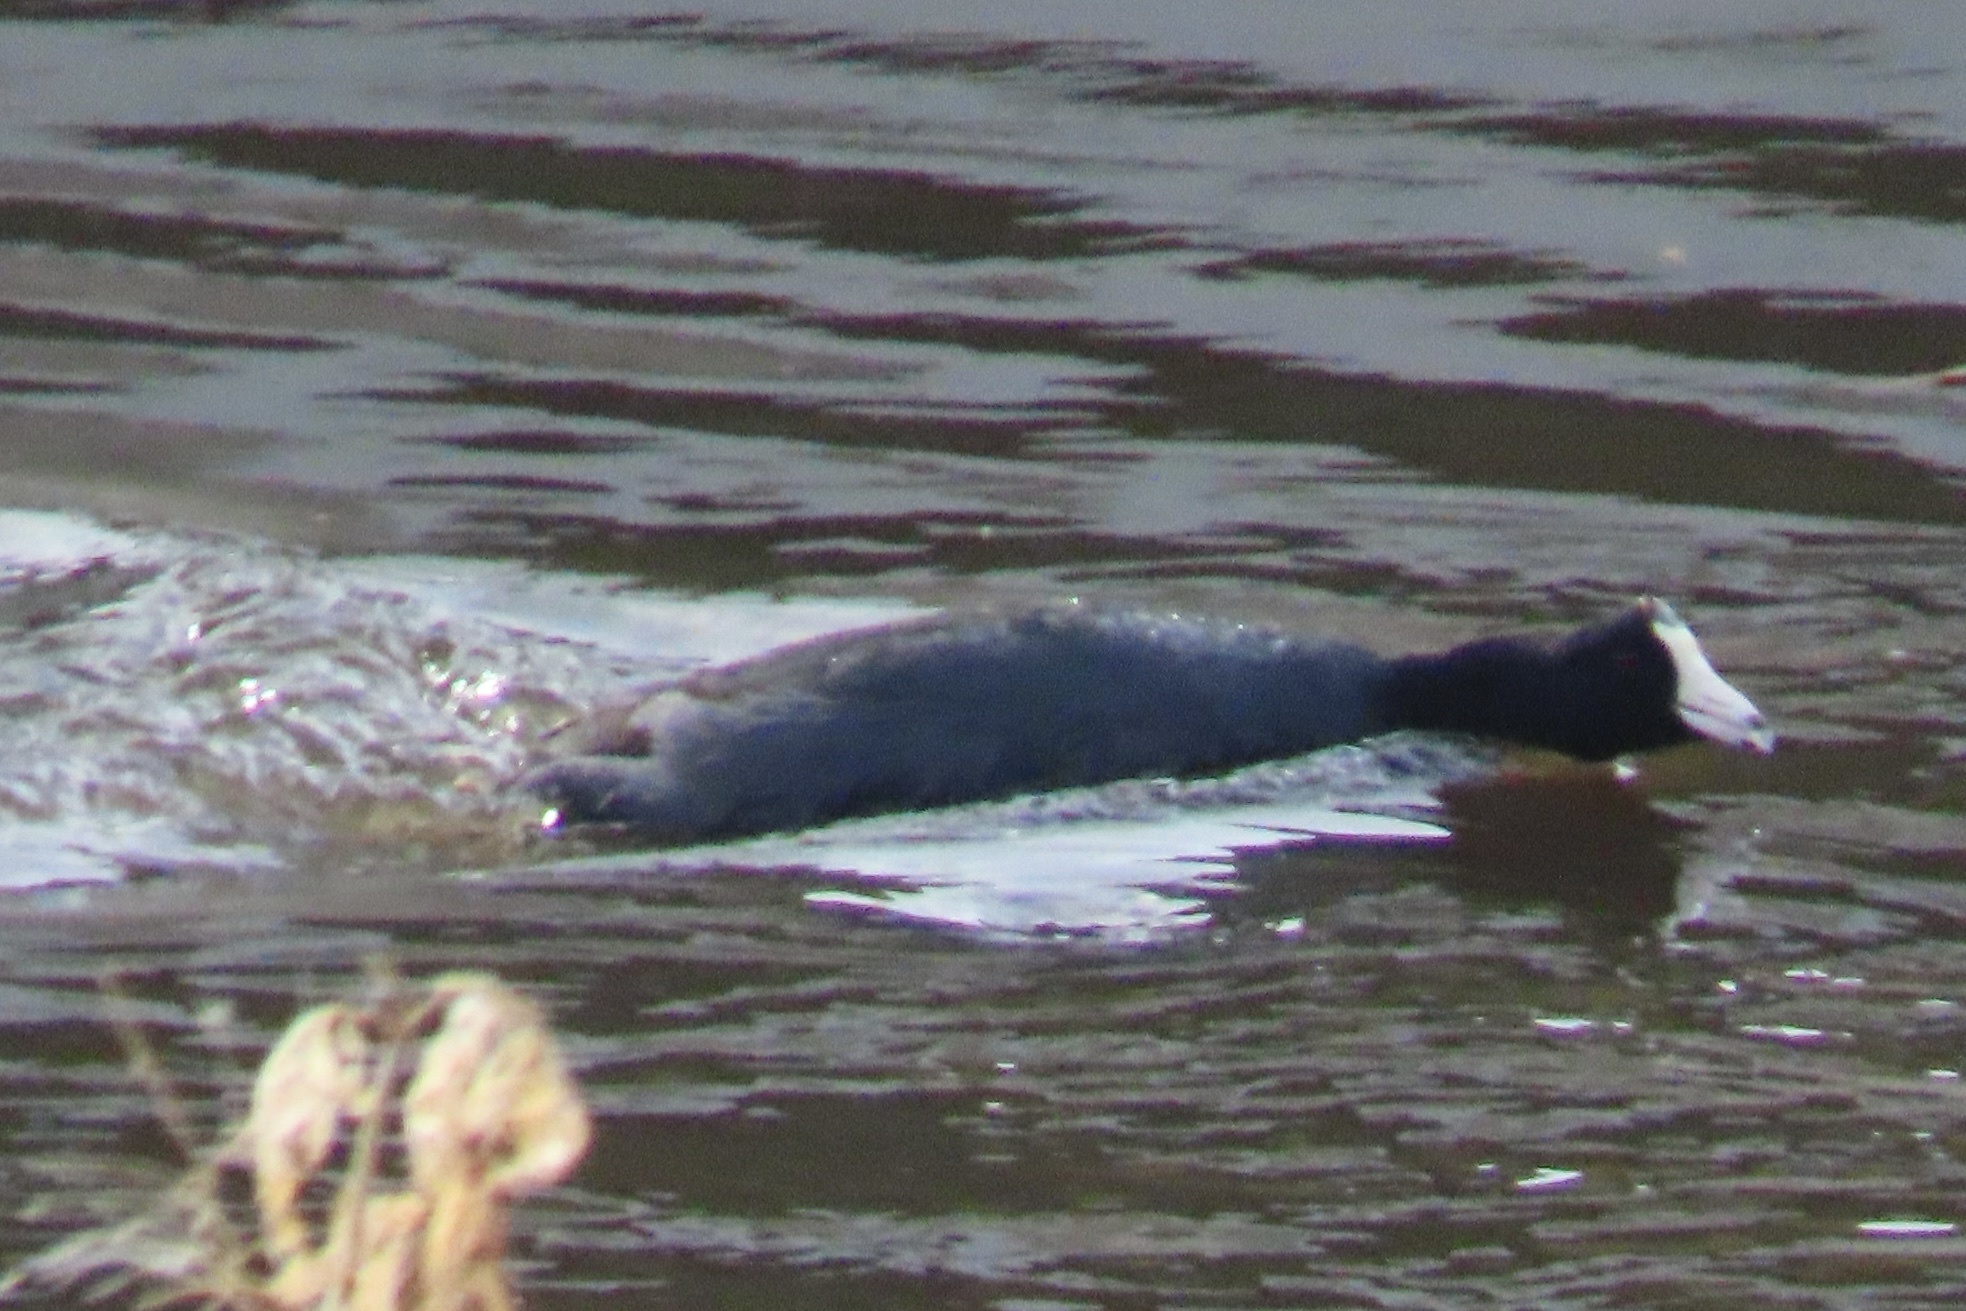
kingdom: Animalia
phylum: Chordata
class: Aves
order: Gruiformes
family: Rallidae
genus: Fulica
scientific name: Fulica americana
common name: American coot
